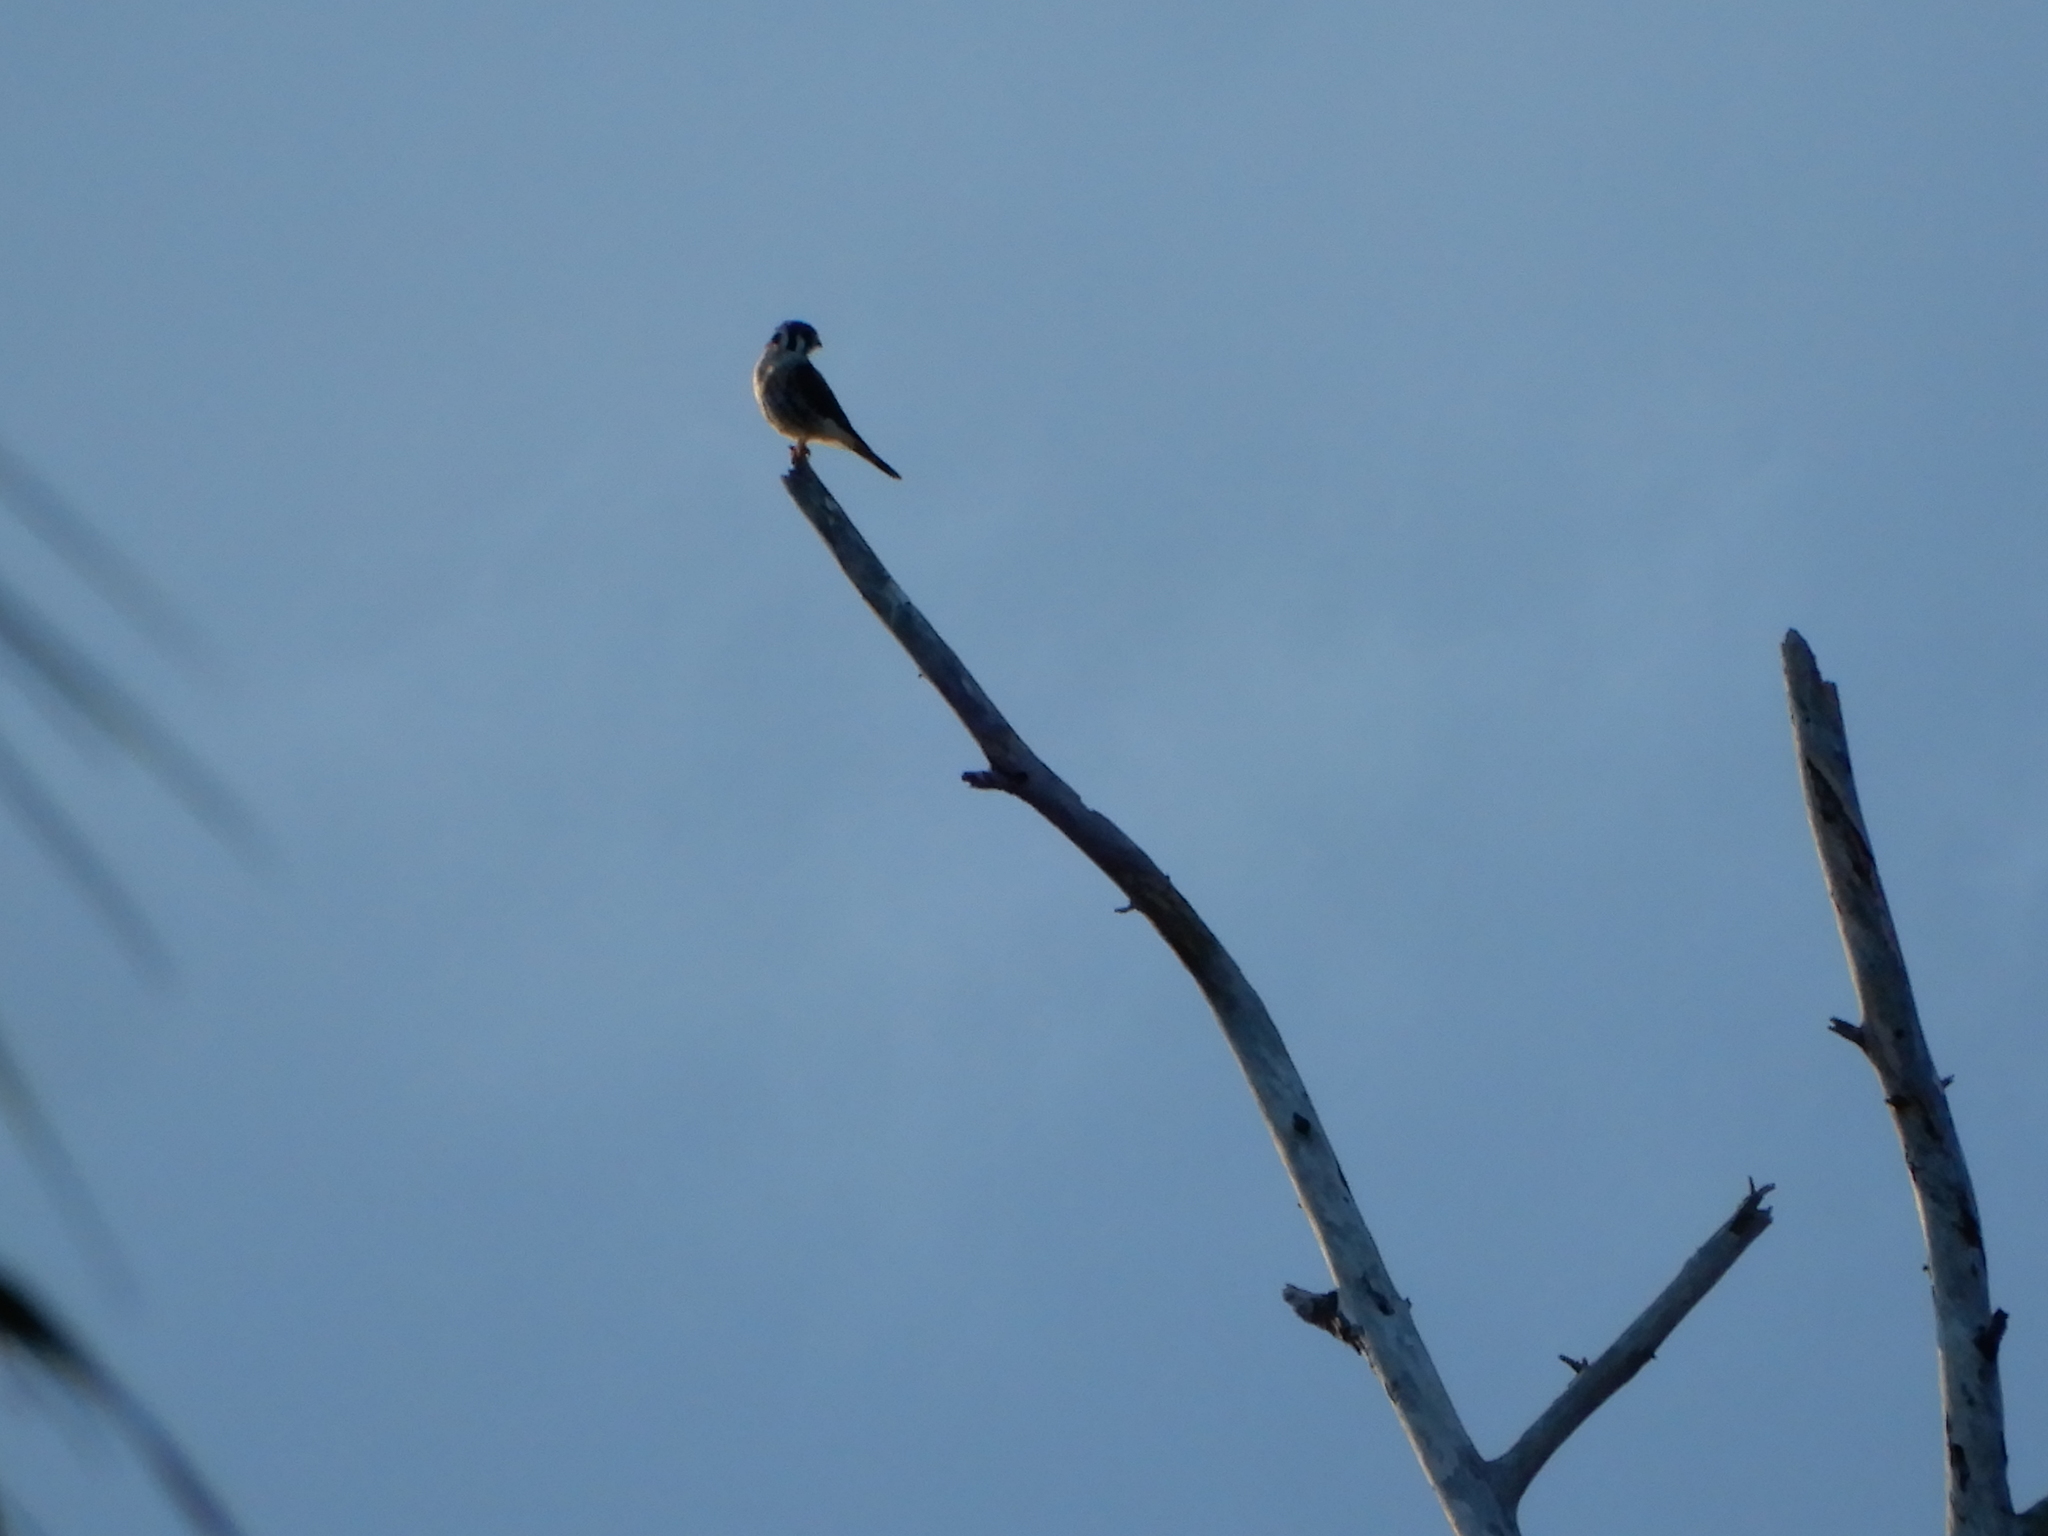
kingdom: Animalia
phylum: Chordata
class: Aves
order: Falconiformes
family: Falconidae
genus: Falco
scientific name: Falco sparverius
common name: American kestrel
